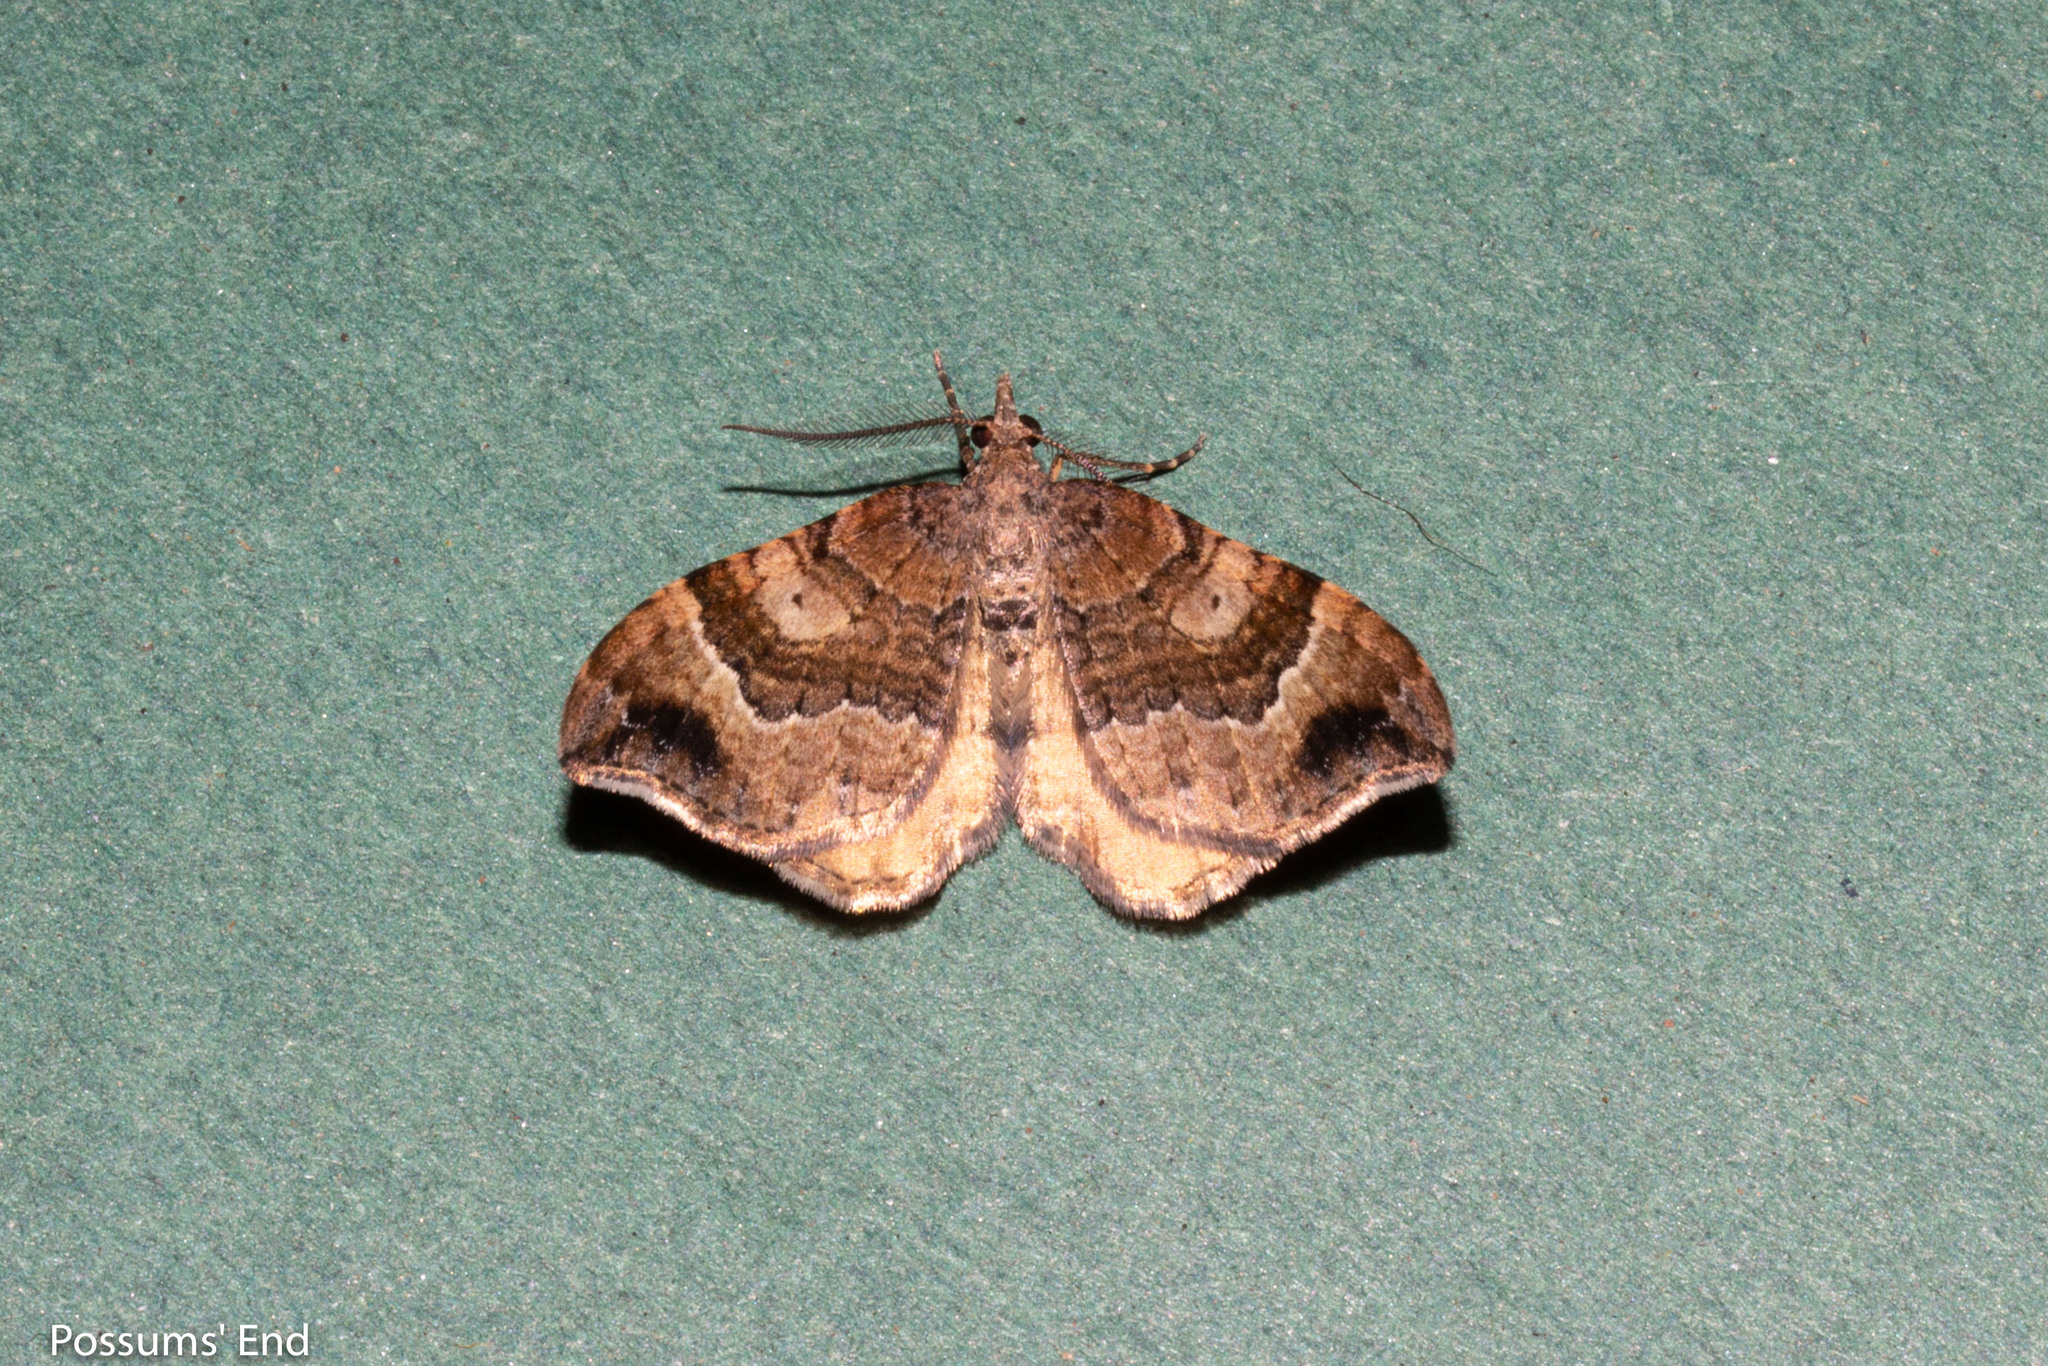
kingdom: Animalia
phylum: Arthropoda
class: Insecta
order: Lepidoptera
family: Geometridae
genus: Homodotis
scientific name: Homodotis megaspilata
